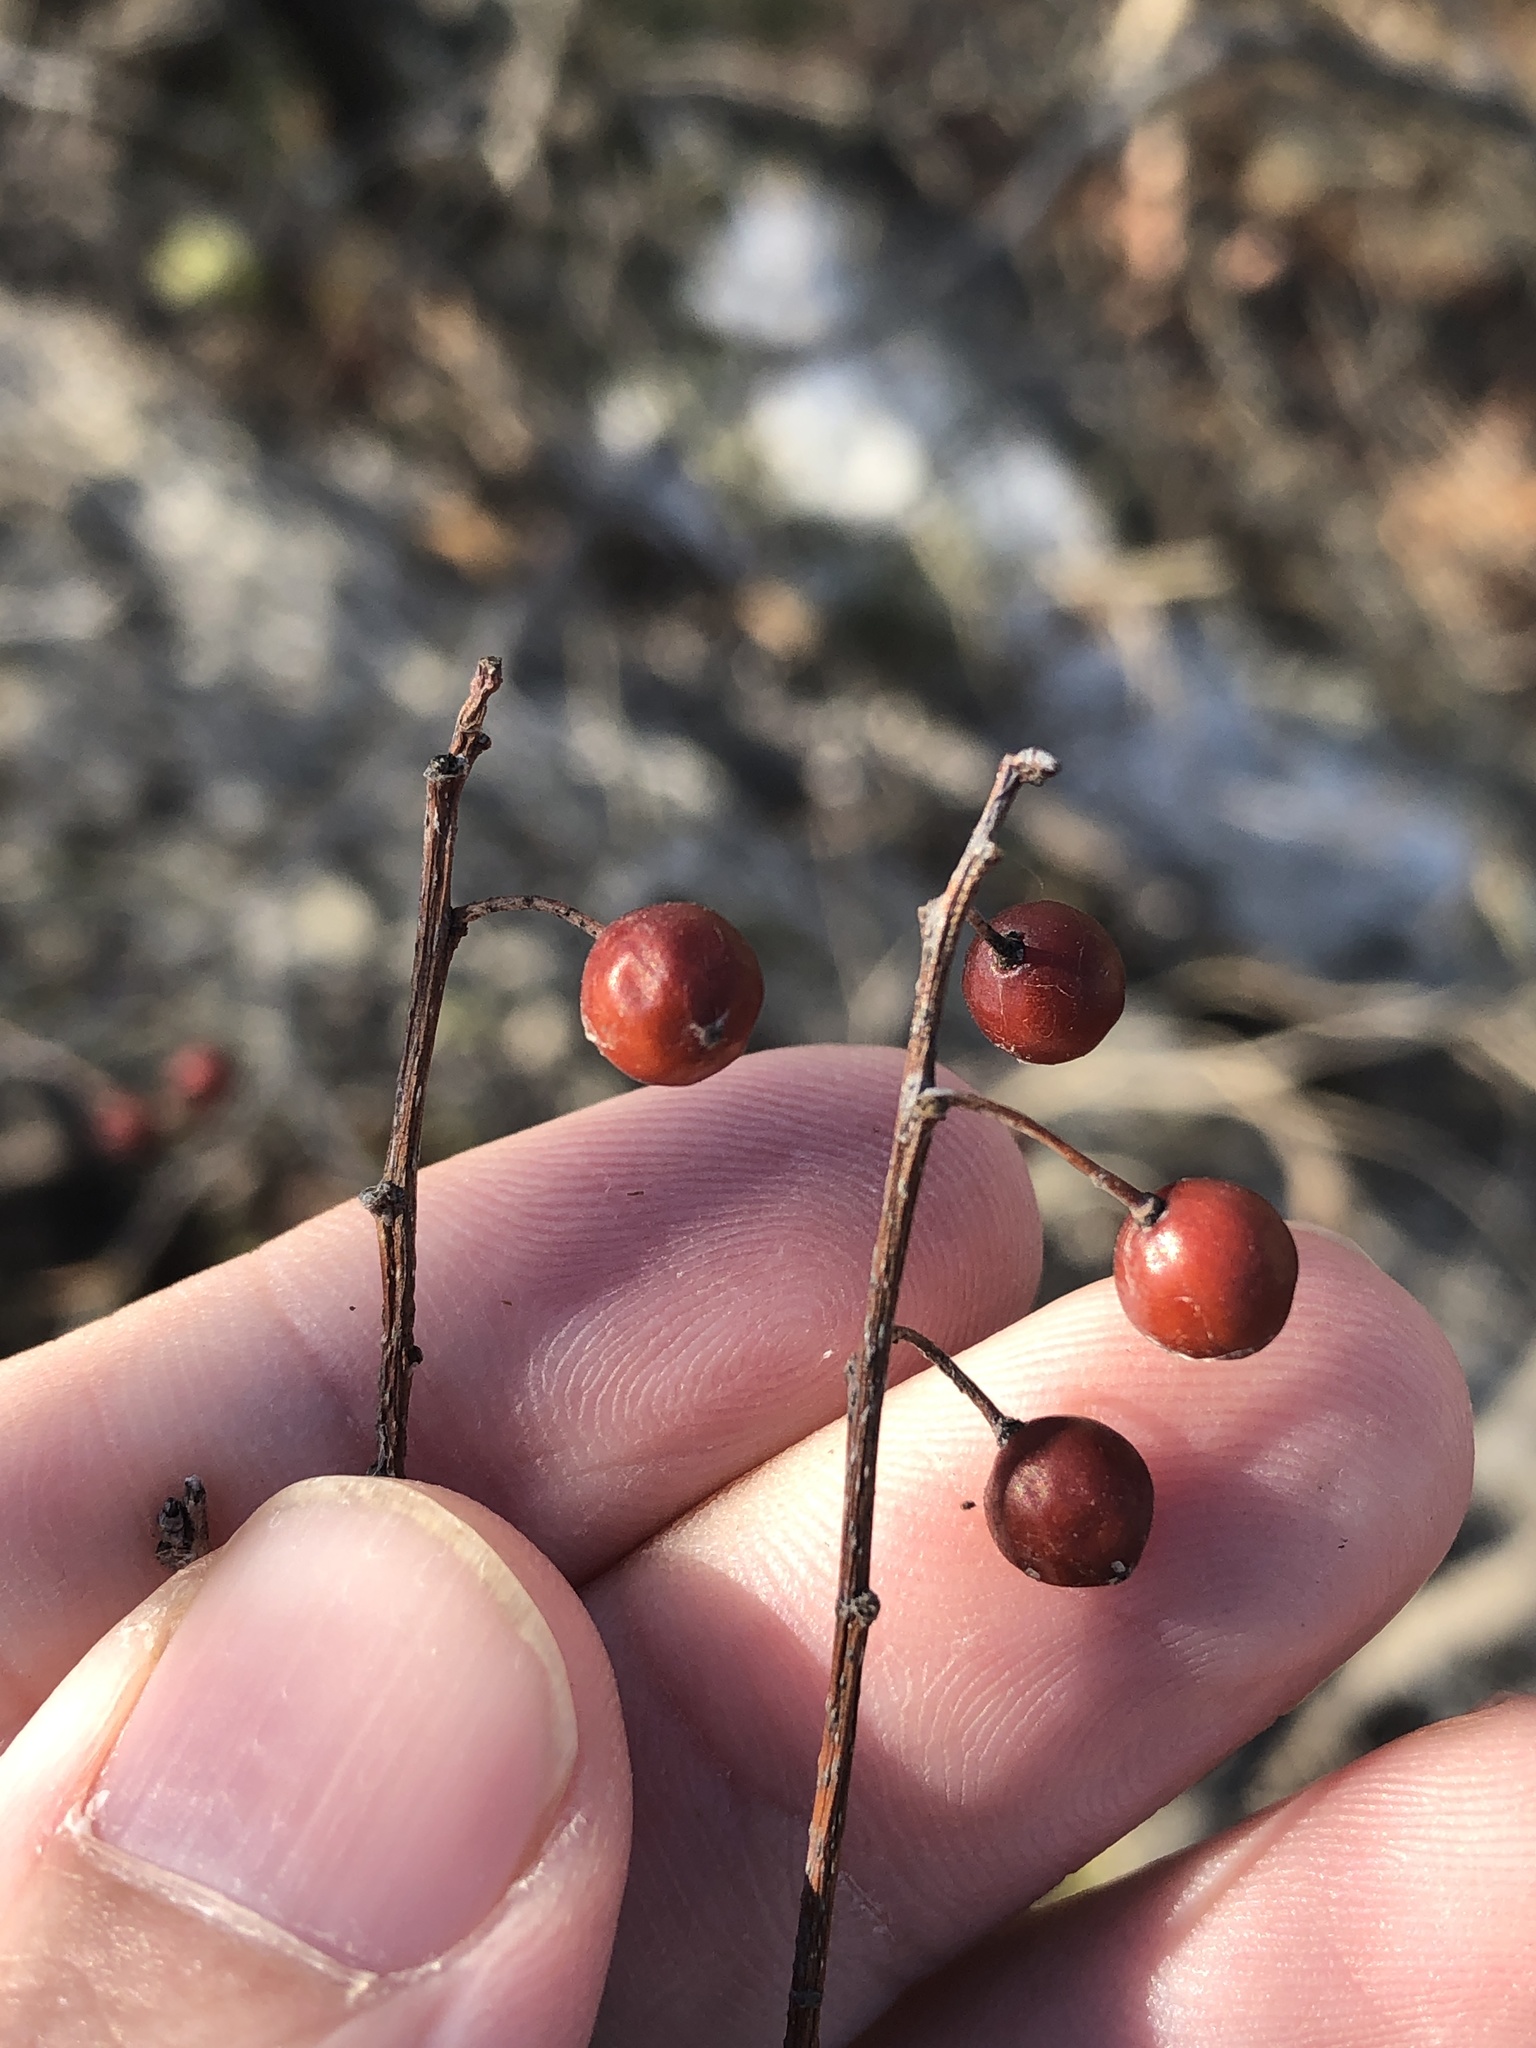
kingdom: Plantae
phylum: Tracheophyta
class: Magnoliopsida
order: Rosales
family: Cannabaceae
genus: Celtis
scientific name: Celtis laevigata
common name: Sugarberry
